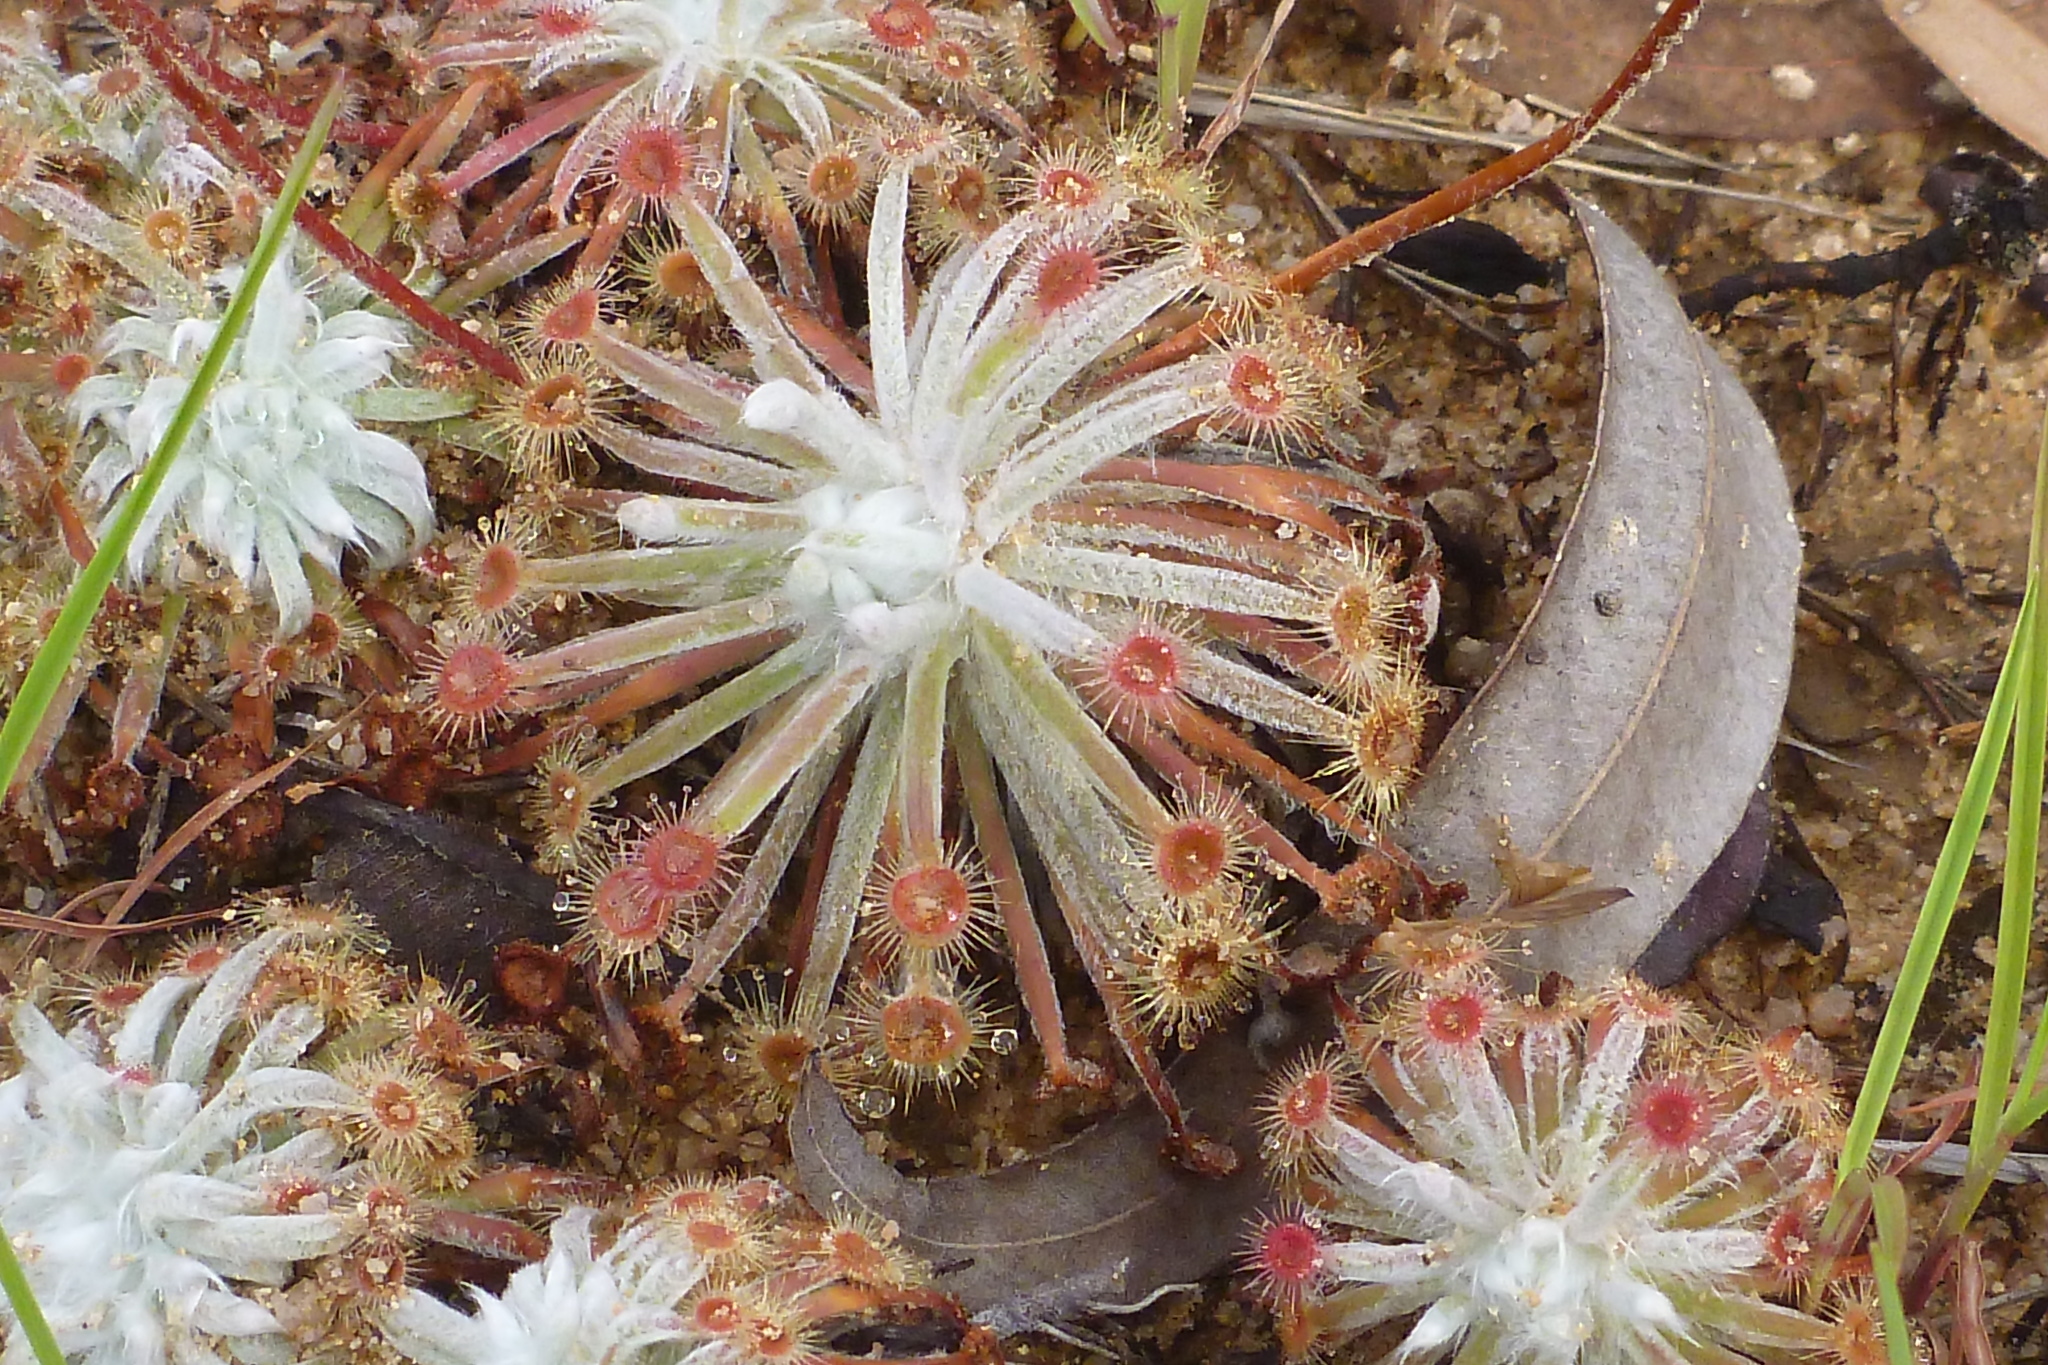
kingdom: Plantae
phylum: Tracheophyta
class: Magnoliopsida
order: Caryophyllales
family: Droseraceae
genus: Drosera
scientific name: Drosera ordensis
